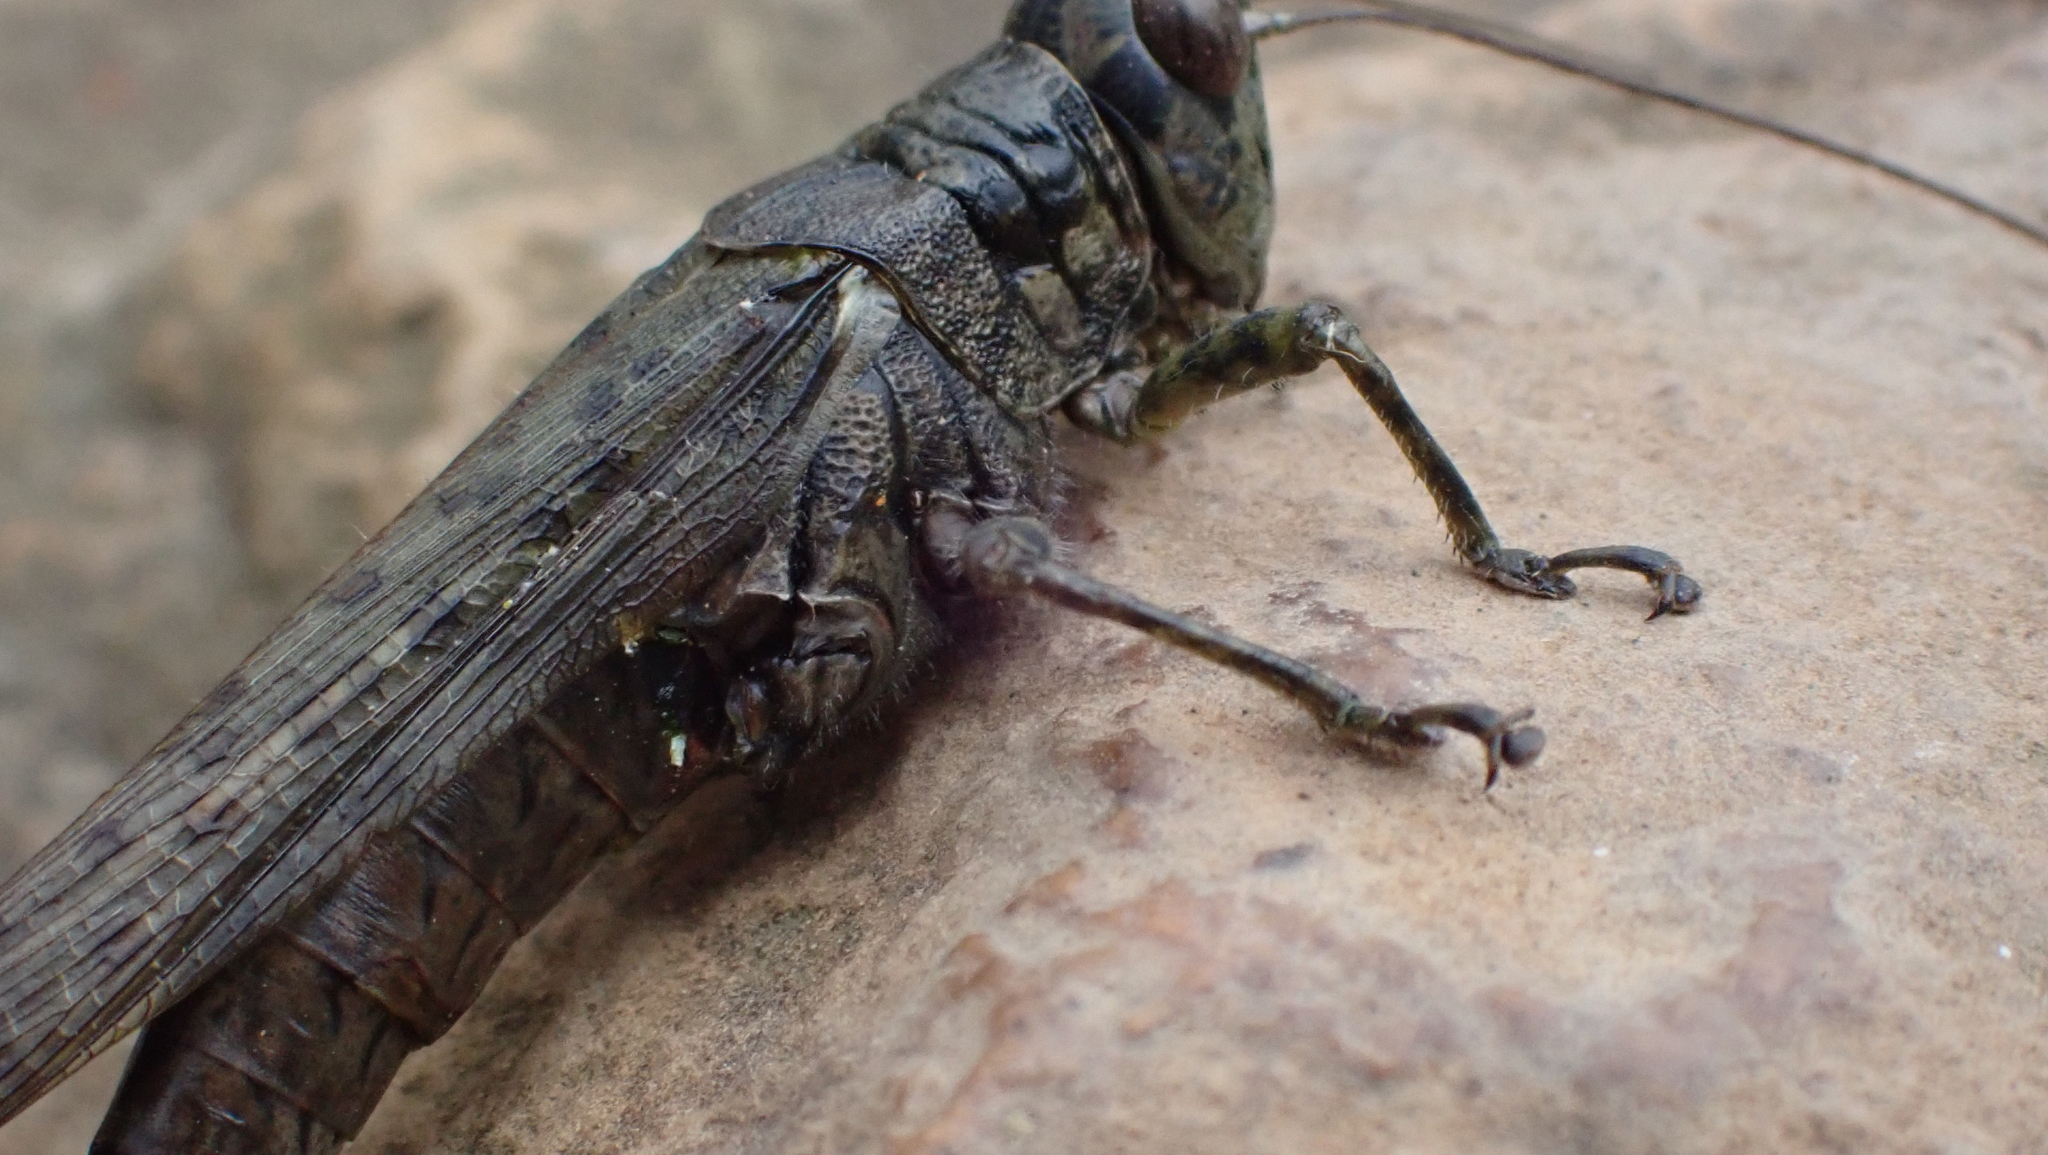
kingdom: Animalia
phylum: Arthropoda
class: Insecta
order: Orthoptera
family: Acrididae
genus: Melanoplus
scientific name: Melanoplus punctulatus
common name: Pine-tree spur-throat grasshopper
